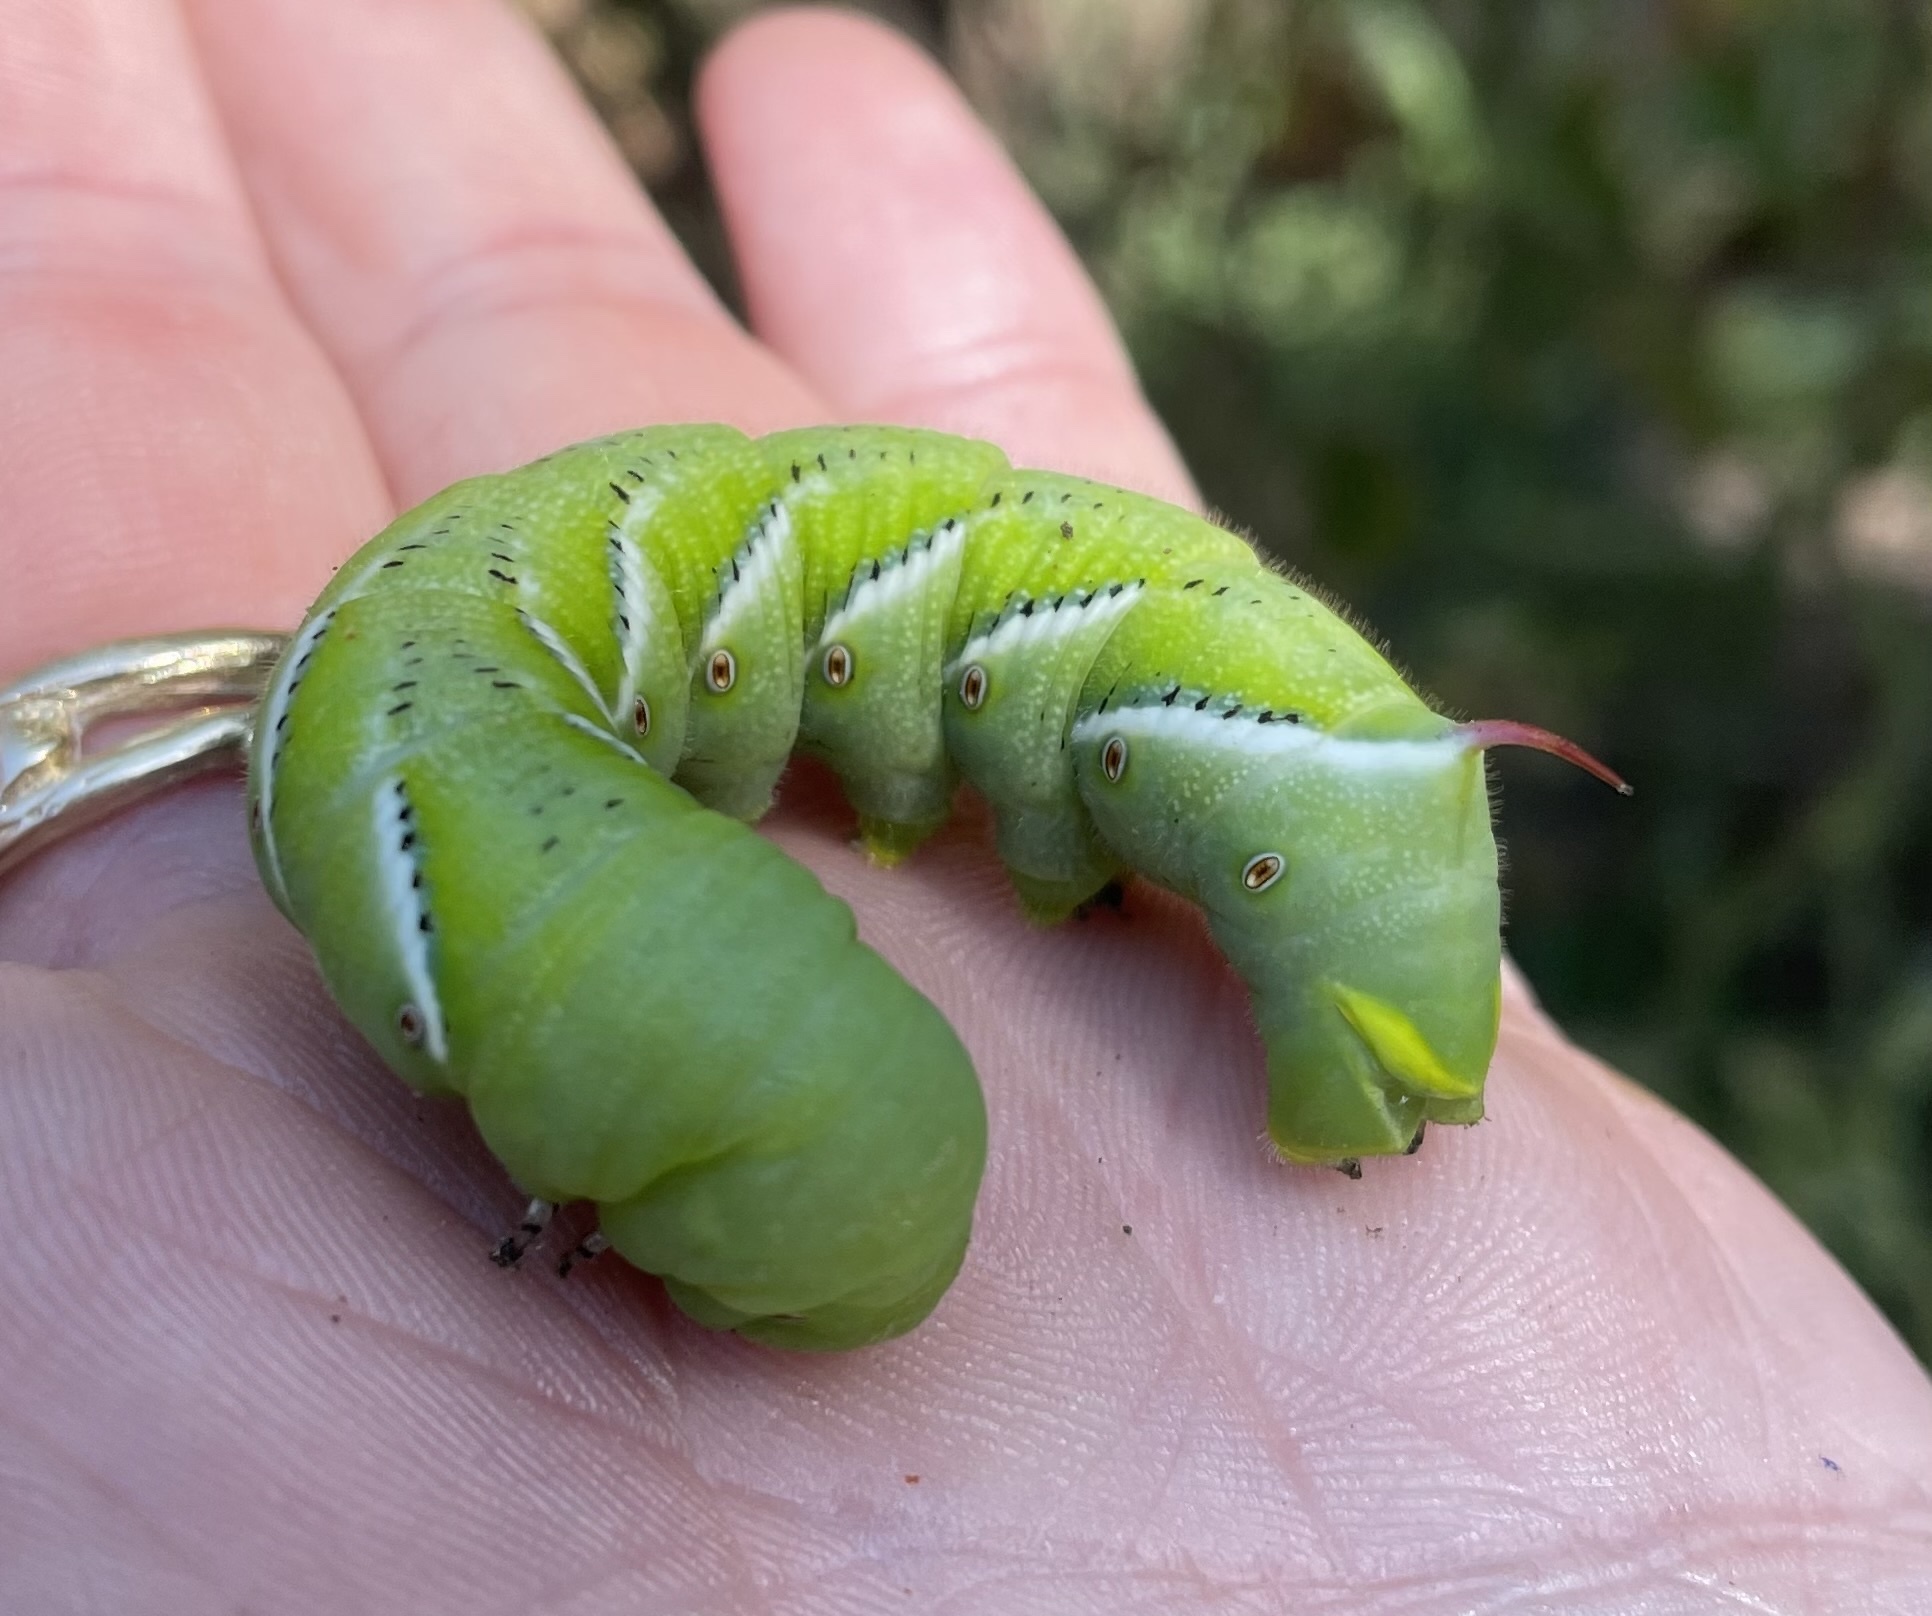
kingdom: Animalia
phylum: Arthropoda
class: Insecta
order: Lepidoptera
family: Sphingidae
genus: Manduca
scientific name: Manduca sexta
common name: Carolina sphinx
